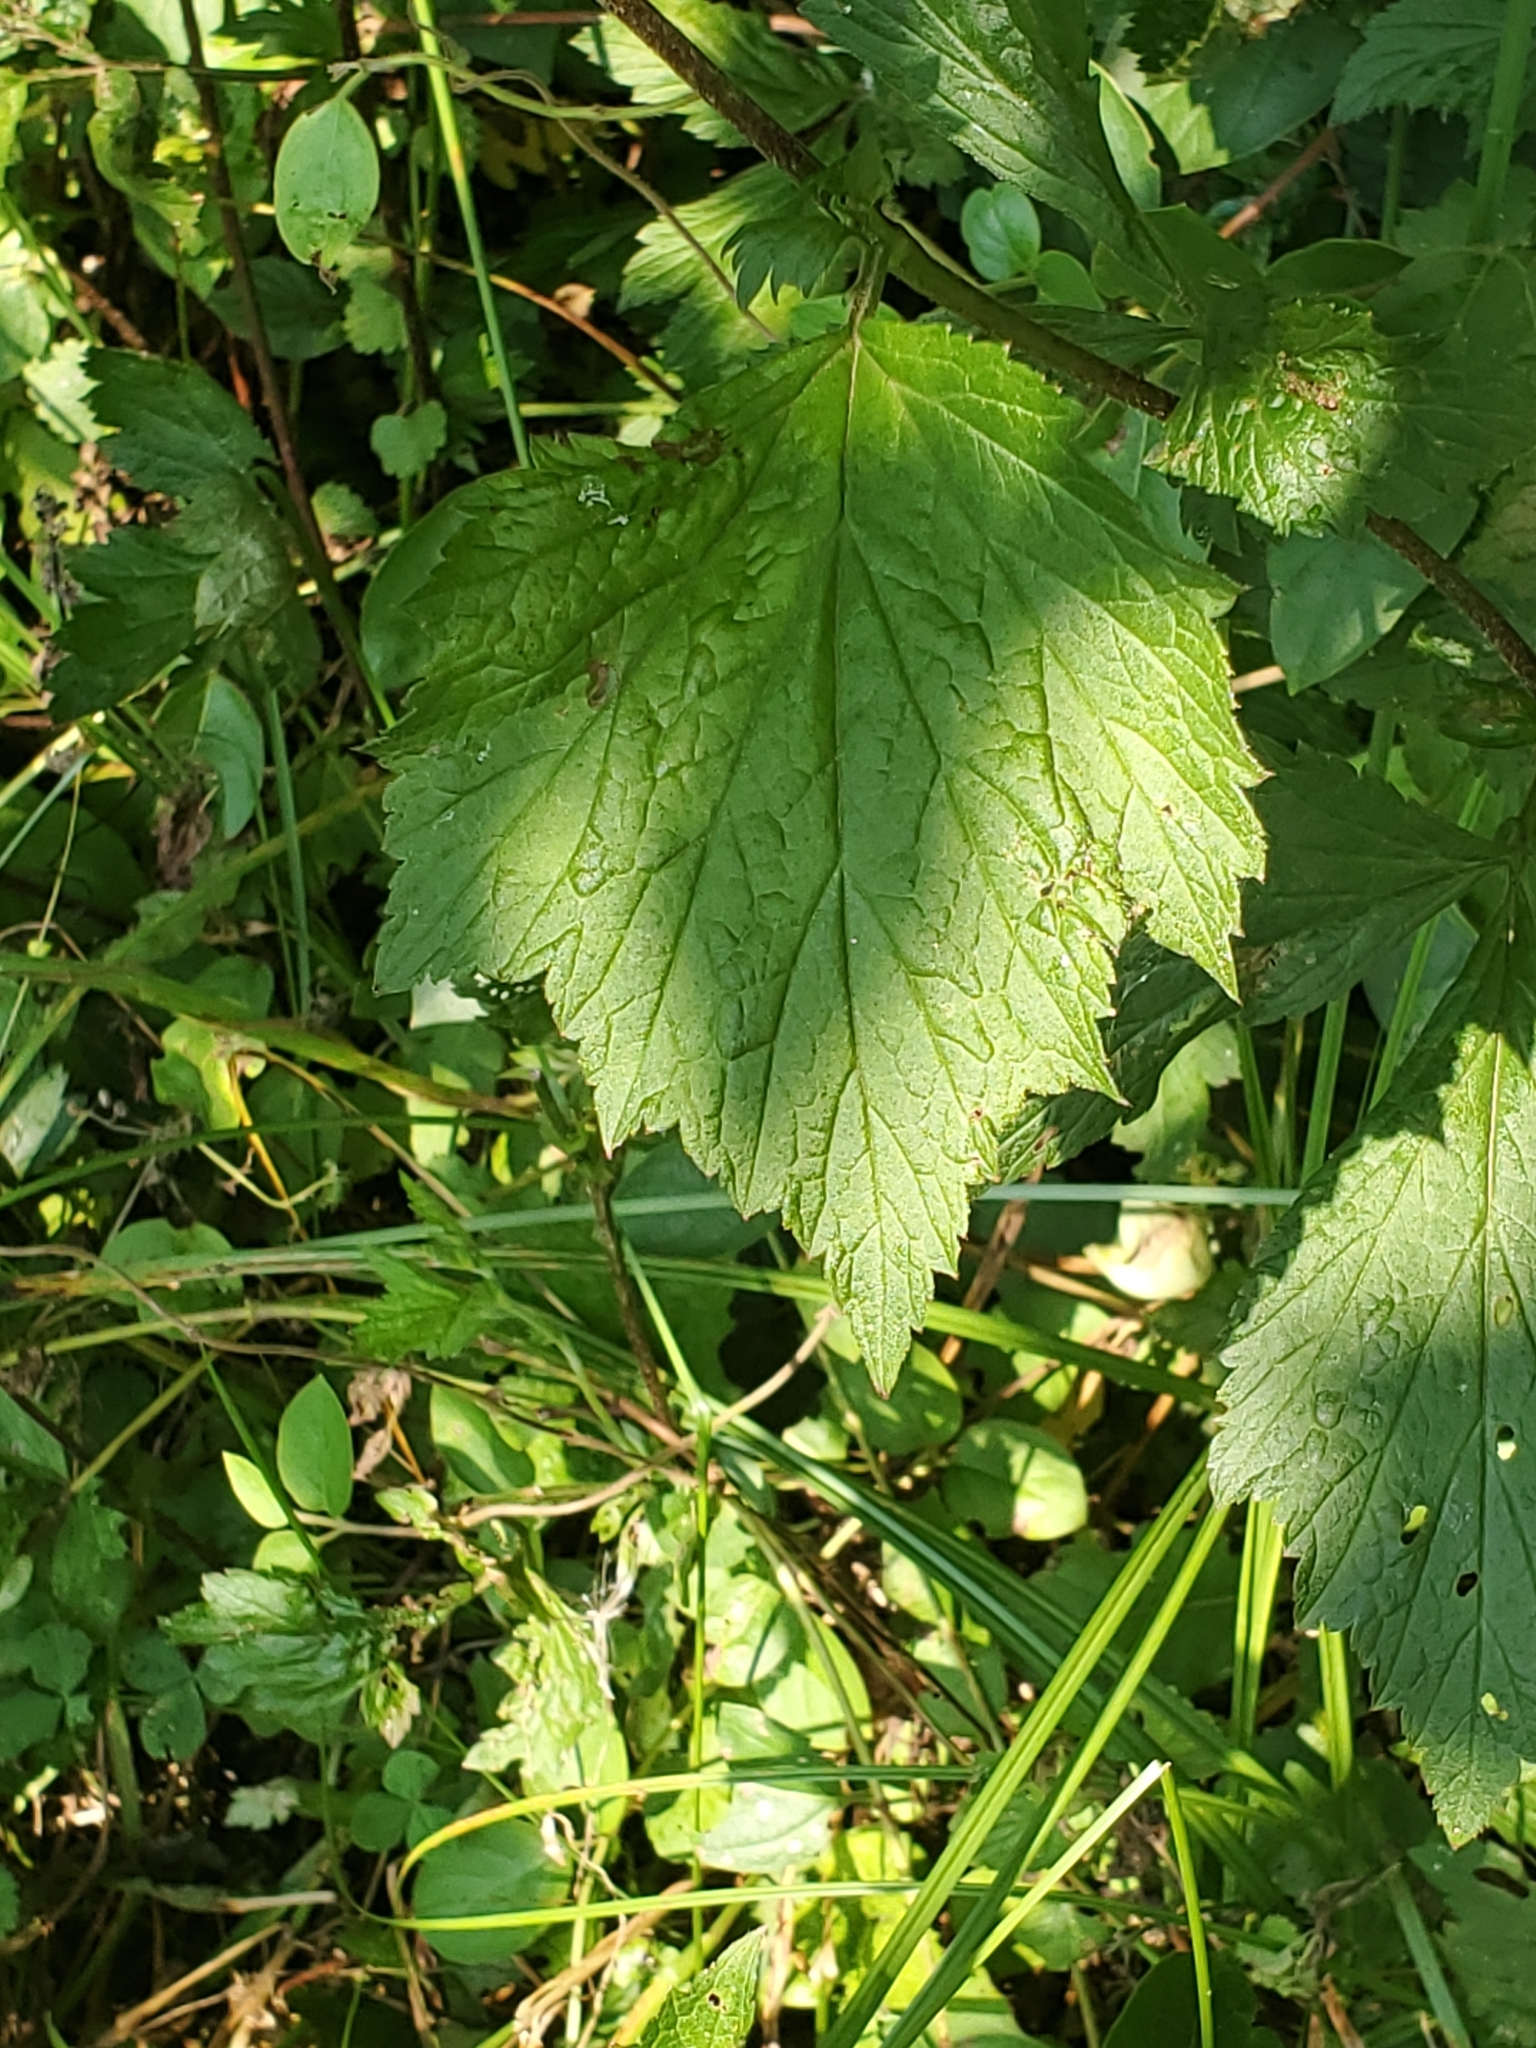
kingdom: Plantae
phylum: Tracheophyta
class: Magnoliopsida
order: Rosales
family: Rosaceae
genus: Geum
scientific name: Geum canadense
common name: White avens
